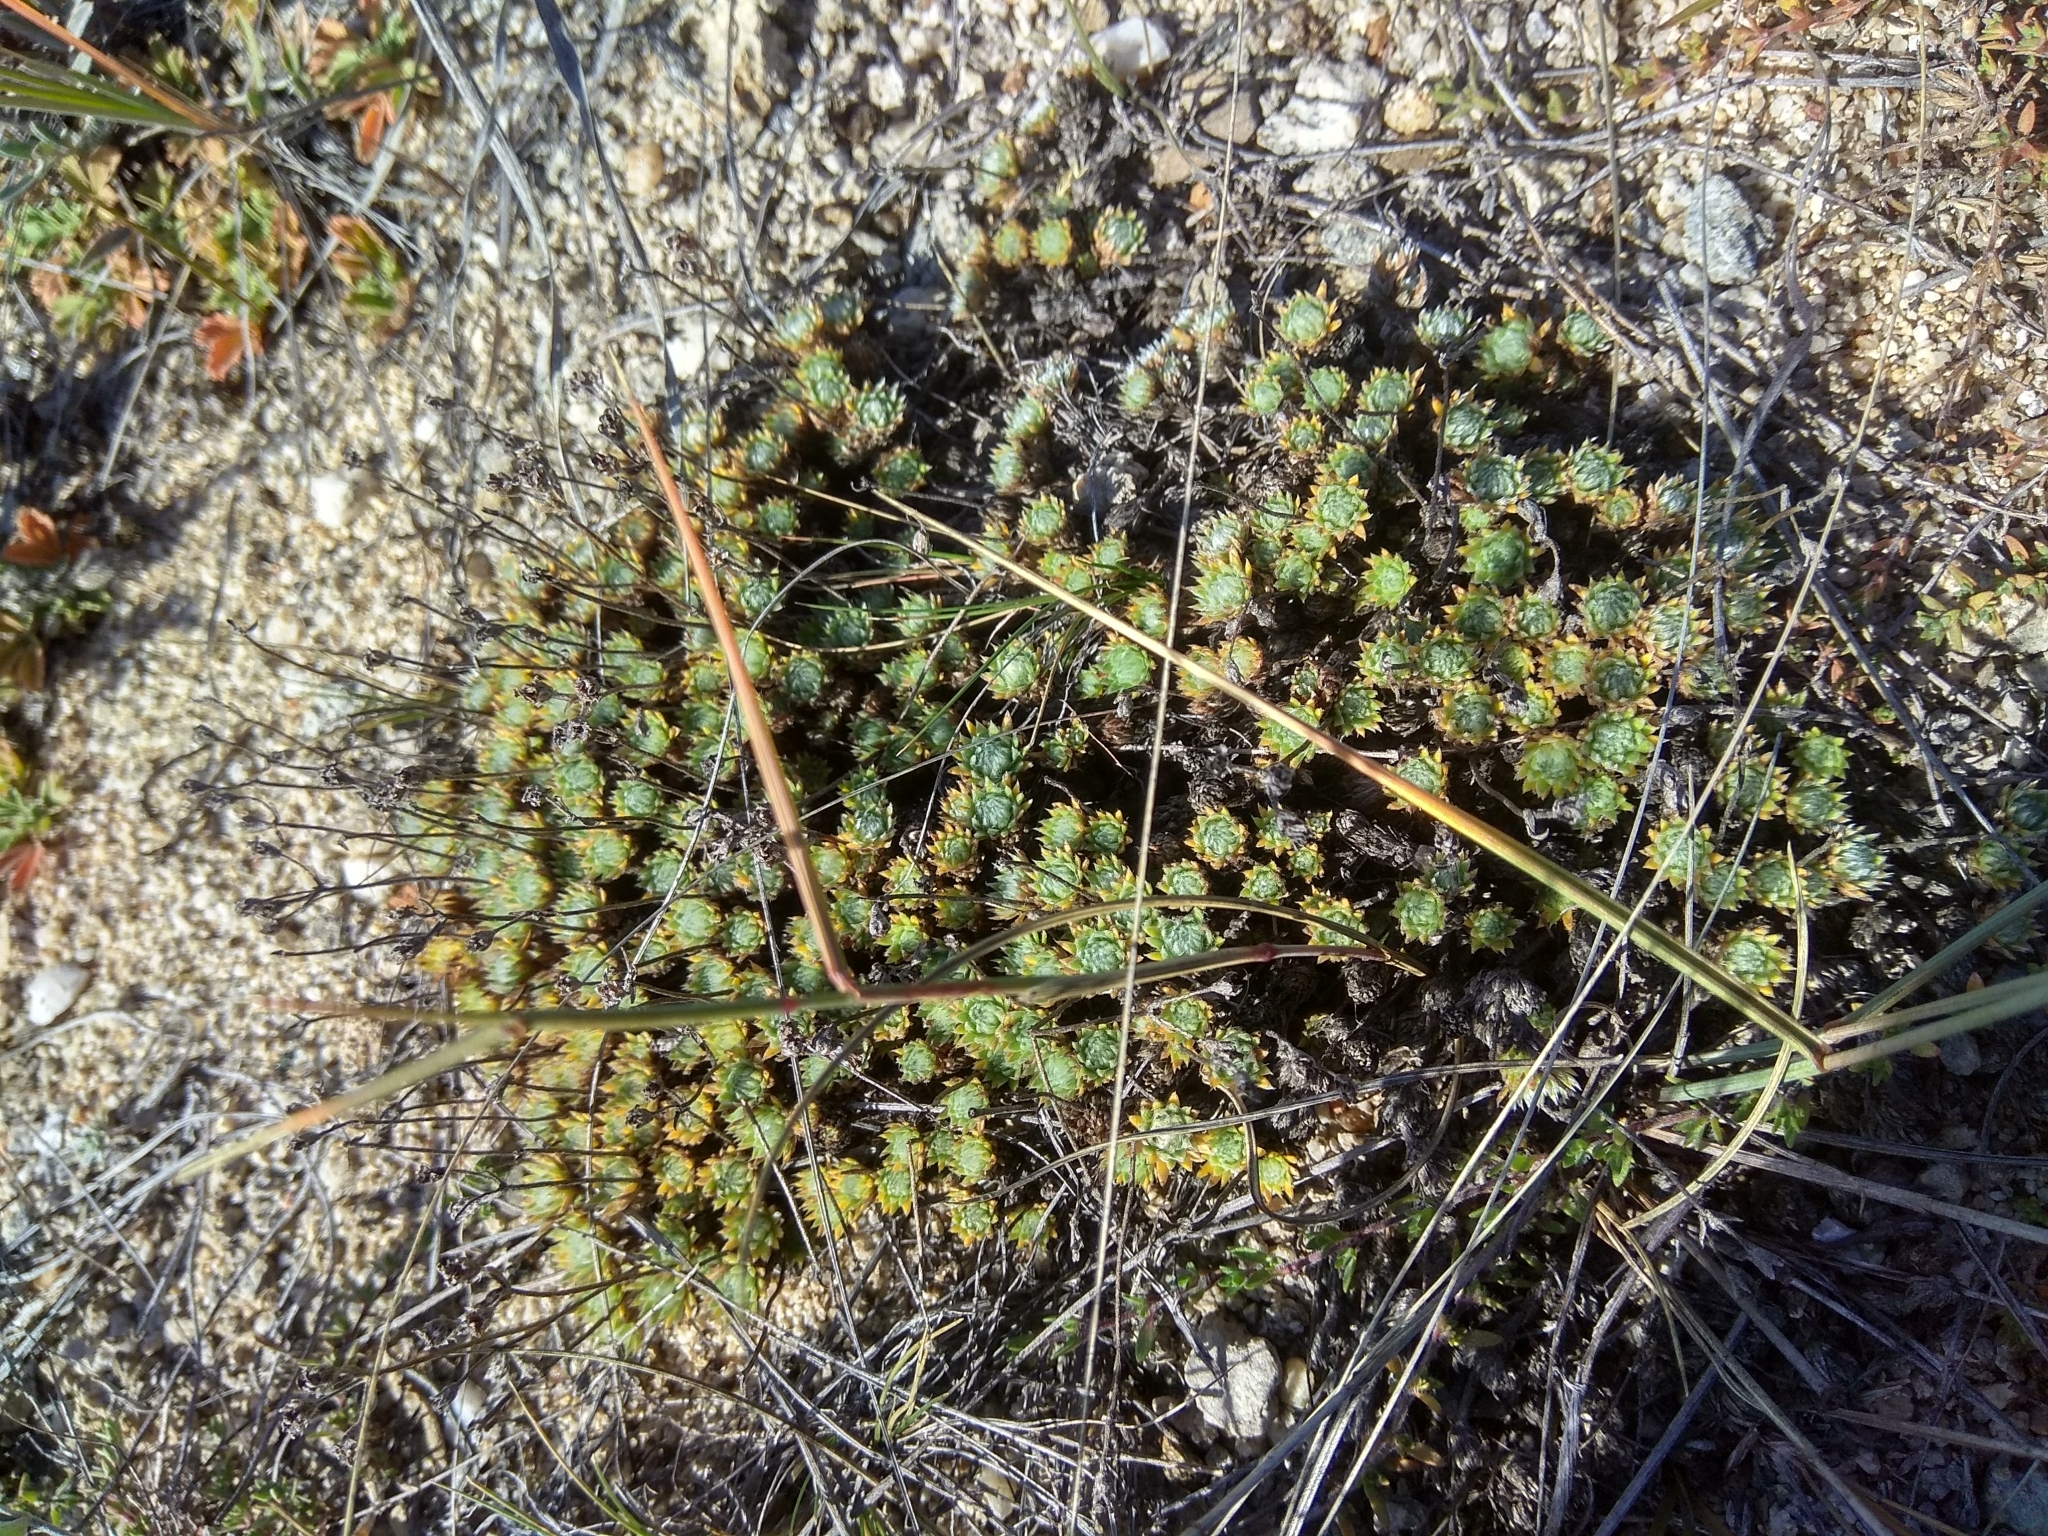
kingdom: Plantae
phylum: Tracheophyta
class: Magnoliopsida
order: Ericales
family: Primulaceae
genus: Androsace
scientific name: Androsace incana
